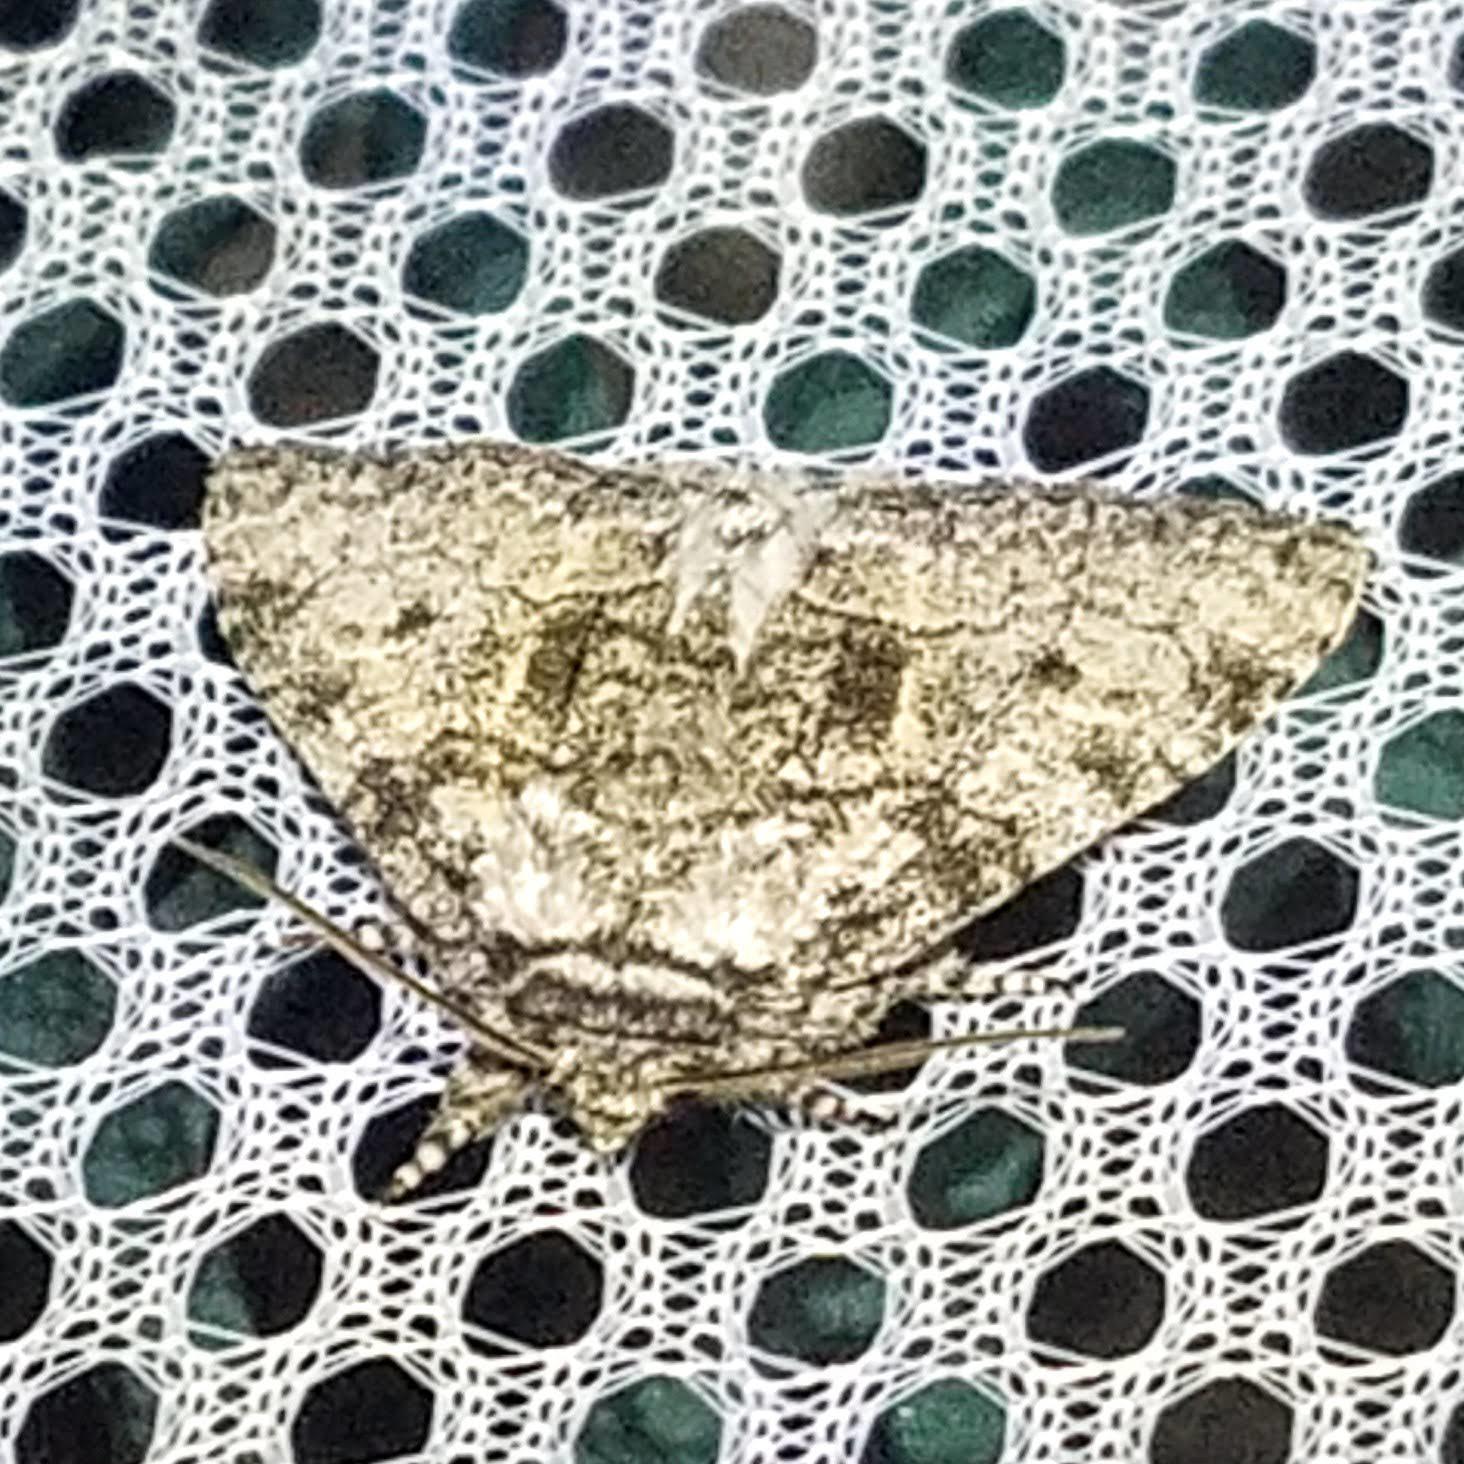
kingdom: Animalia
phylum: Arthropoda
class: Insecta
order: Lepidoptera
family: Noctuidae
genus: Raphia
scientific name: Raphia frater
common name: Brother
